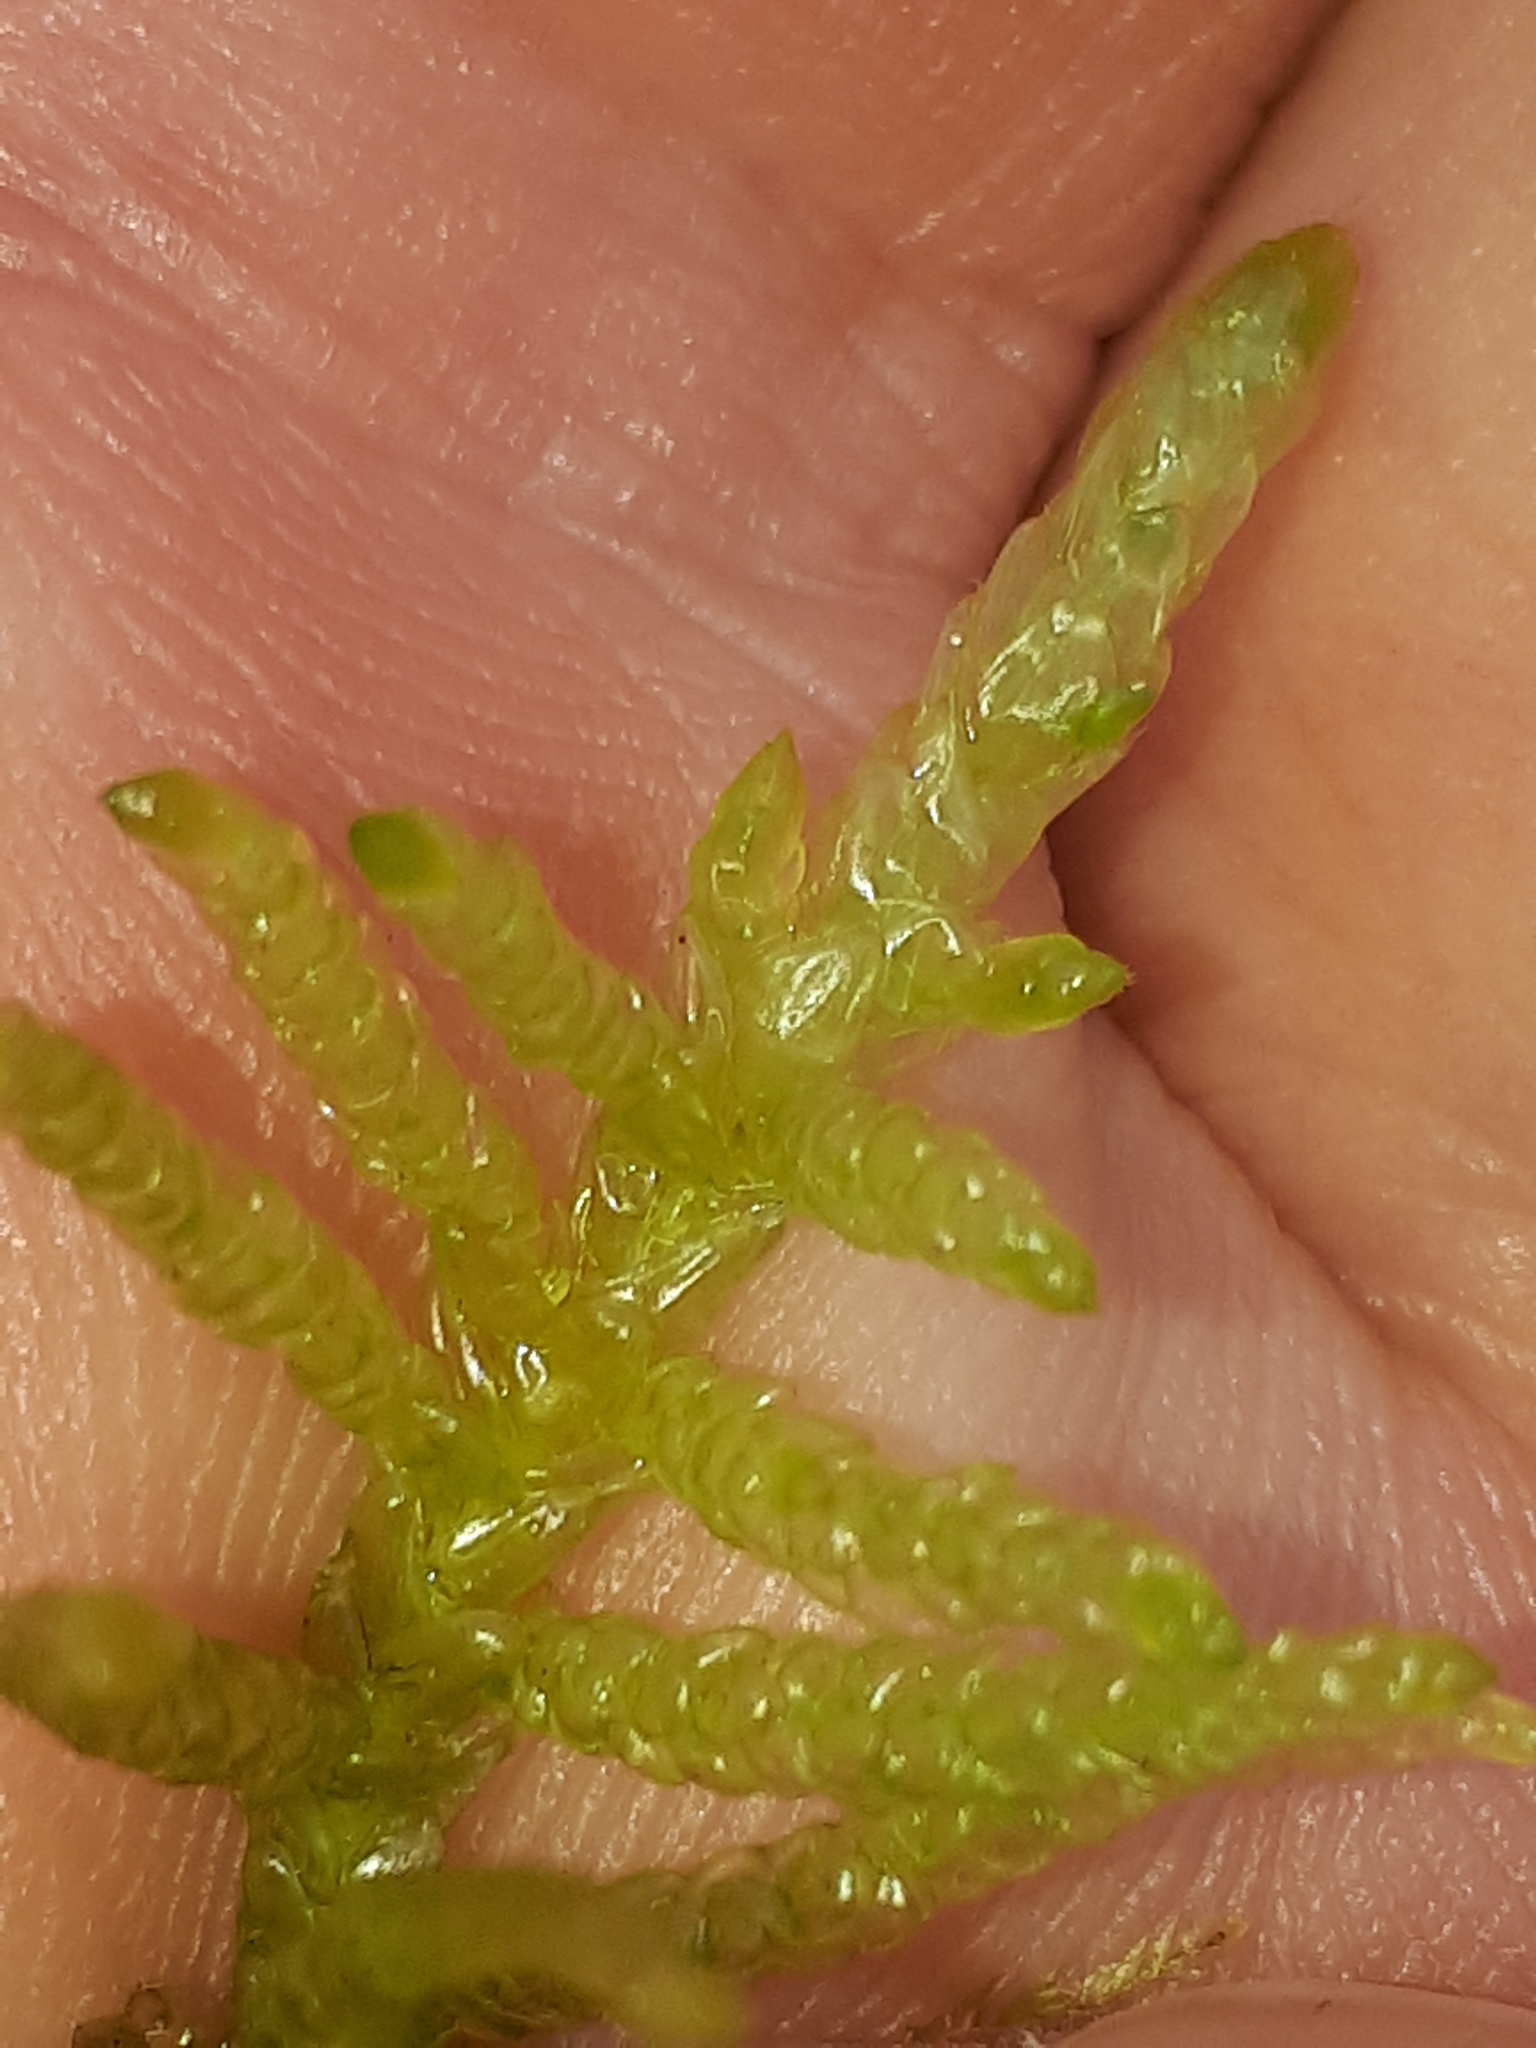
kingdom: Plantae
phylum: Bryophyta
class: Bryopsida
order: Hypnales
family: Brachytheciaceae
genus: Pseudoscleropodium
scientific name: Pseudoscleropodium purum
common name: Neat feather-moss
